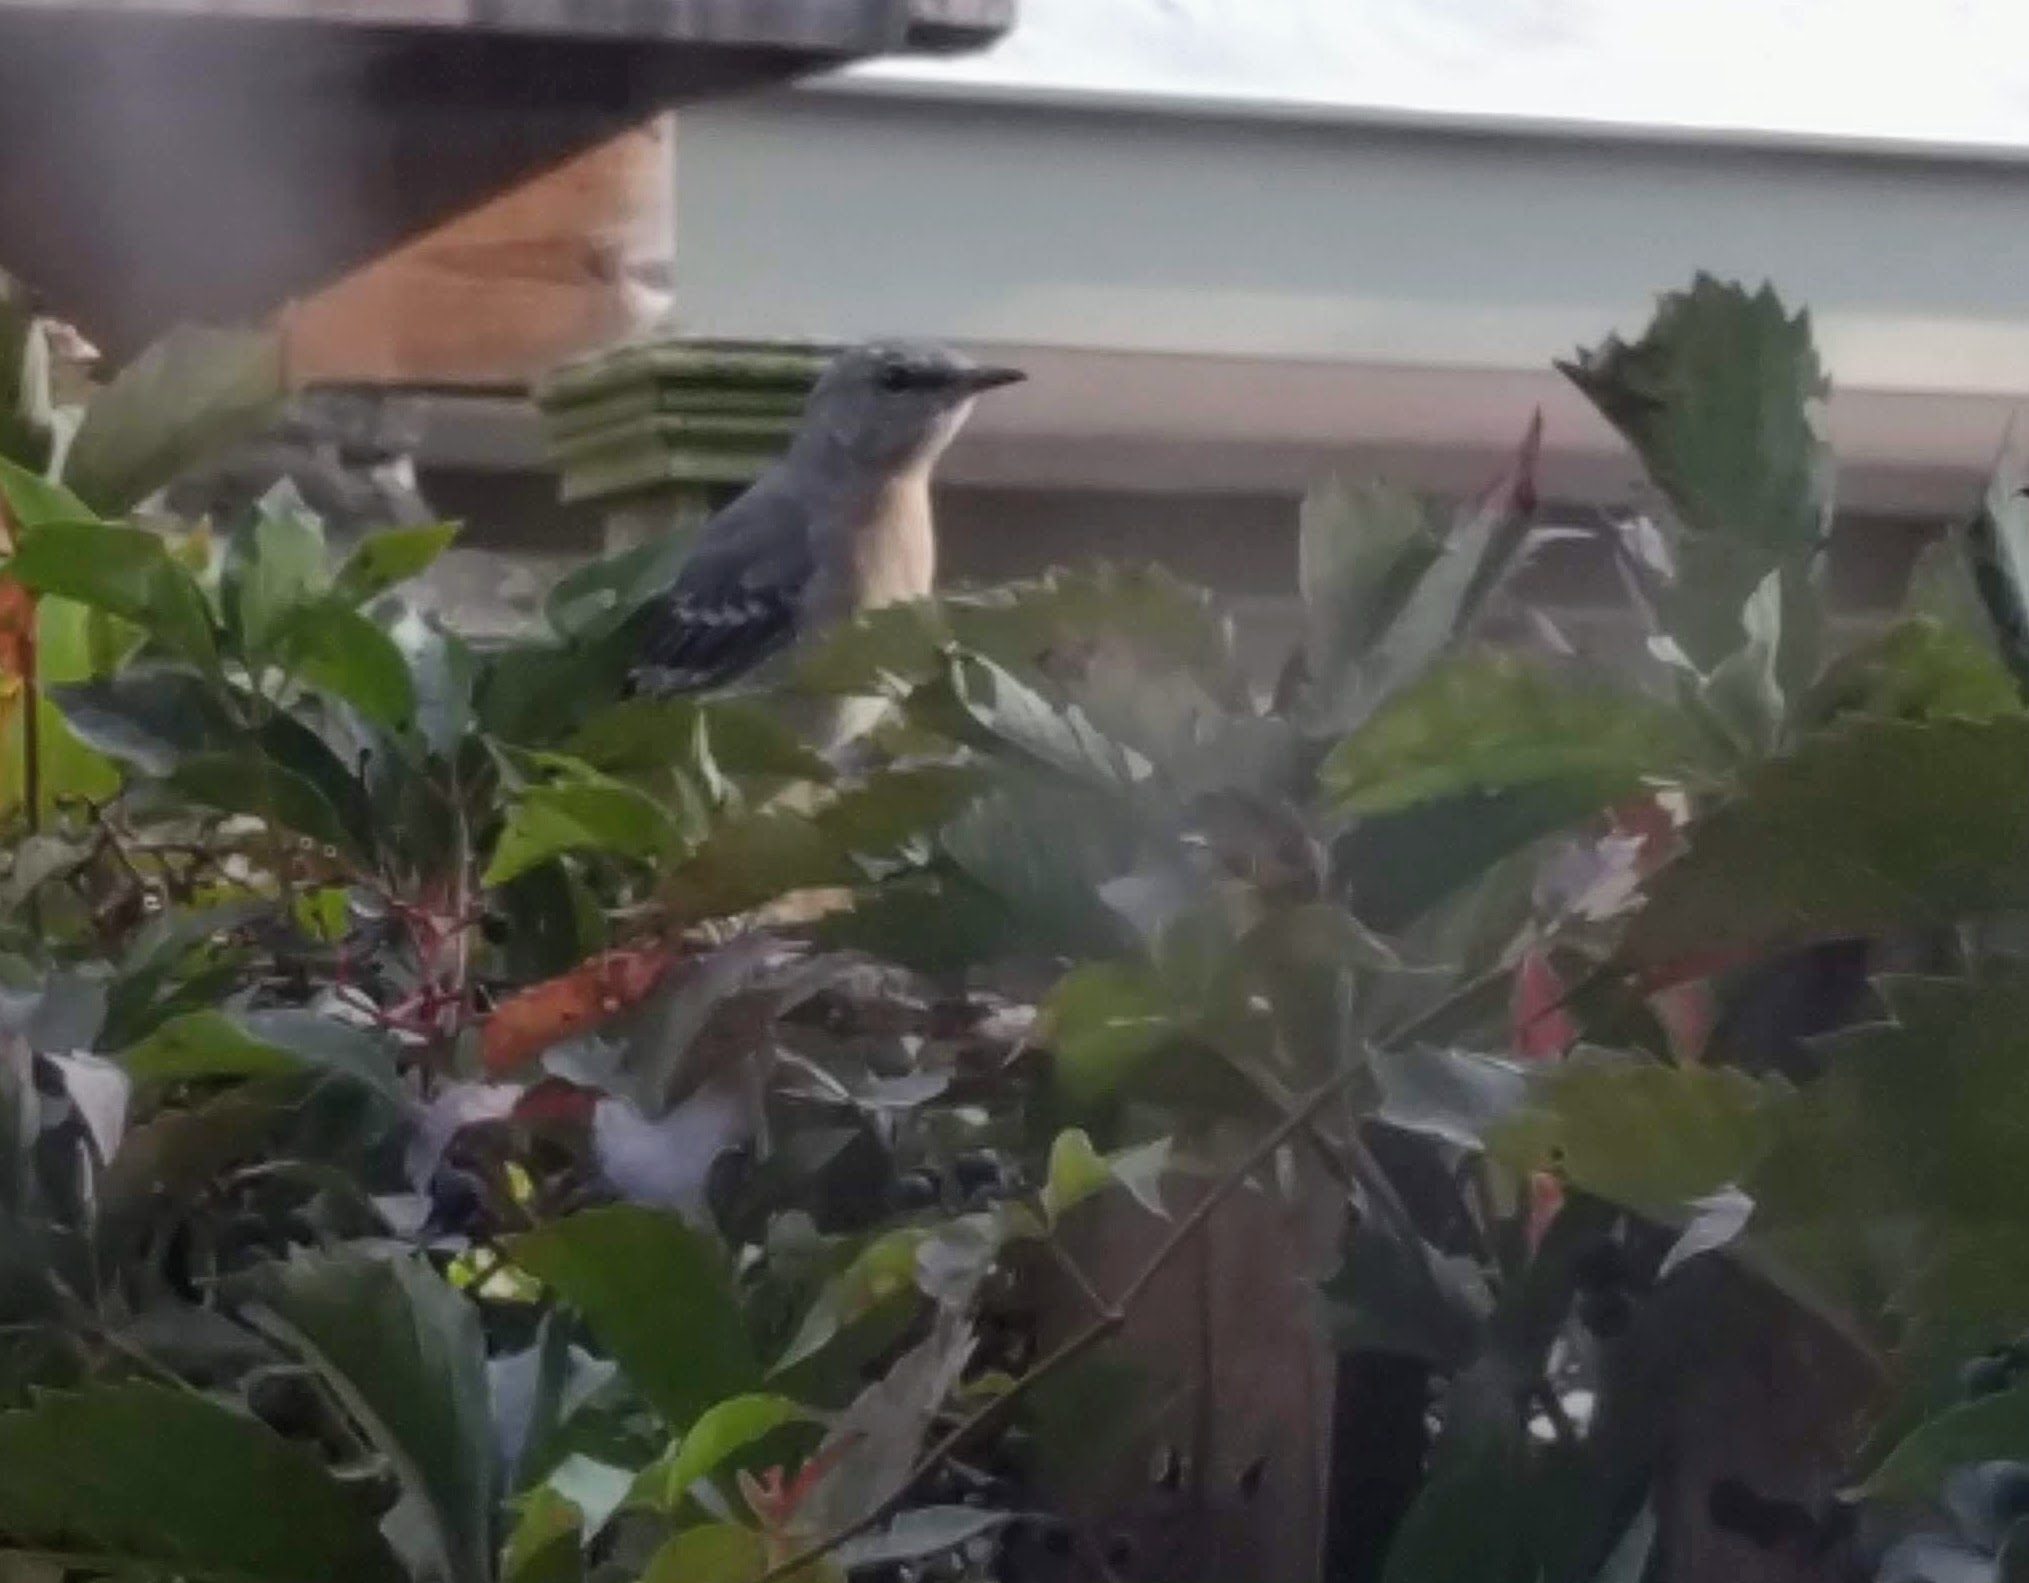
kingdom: Animalia
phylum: Chordata
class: Aves
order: Passeriformes
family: Mimidae
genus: Mimus
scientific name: Mimus polyglottos
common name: Northern mockingbird
